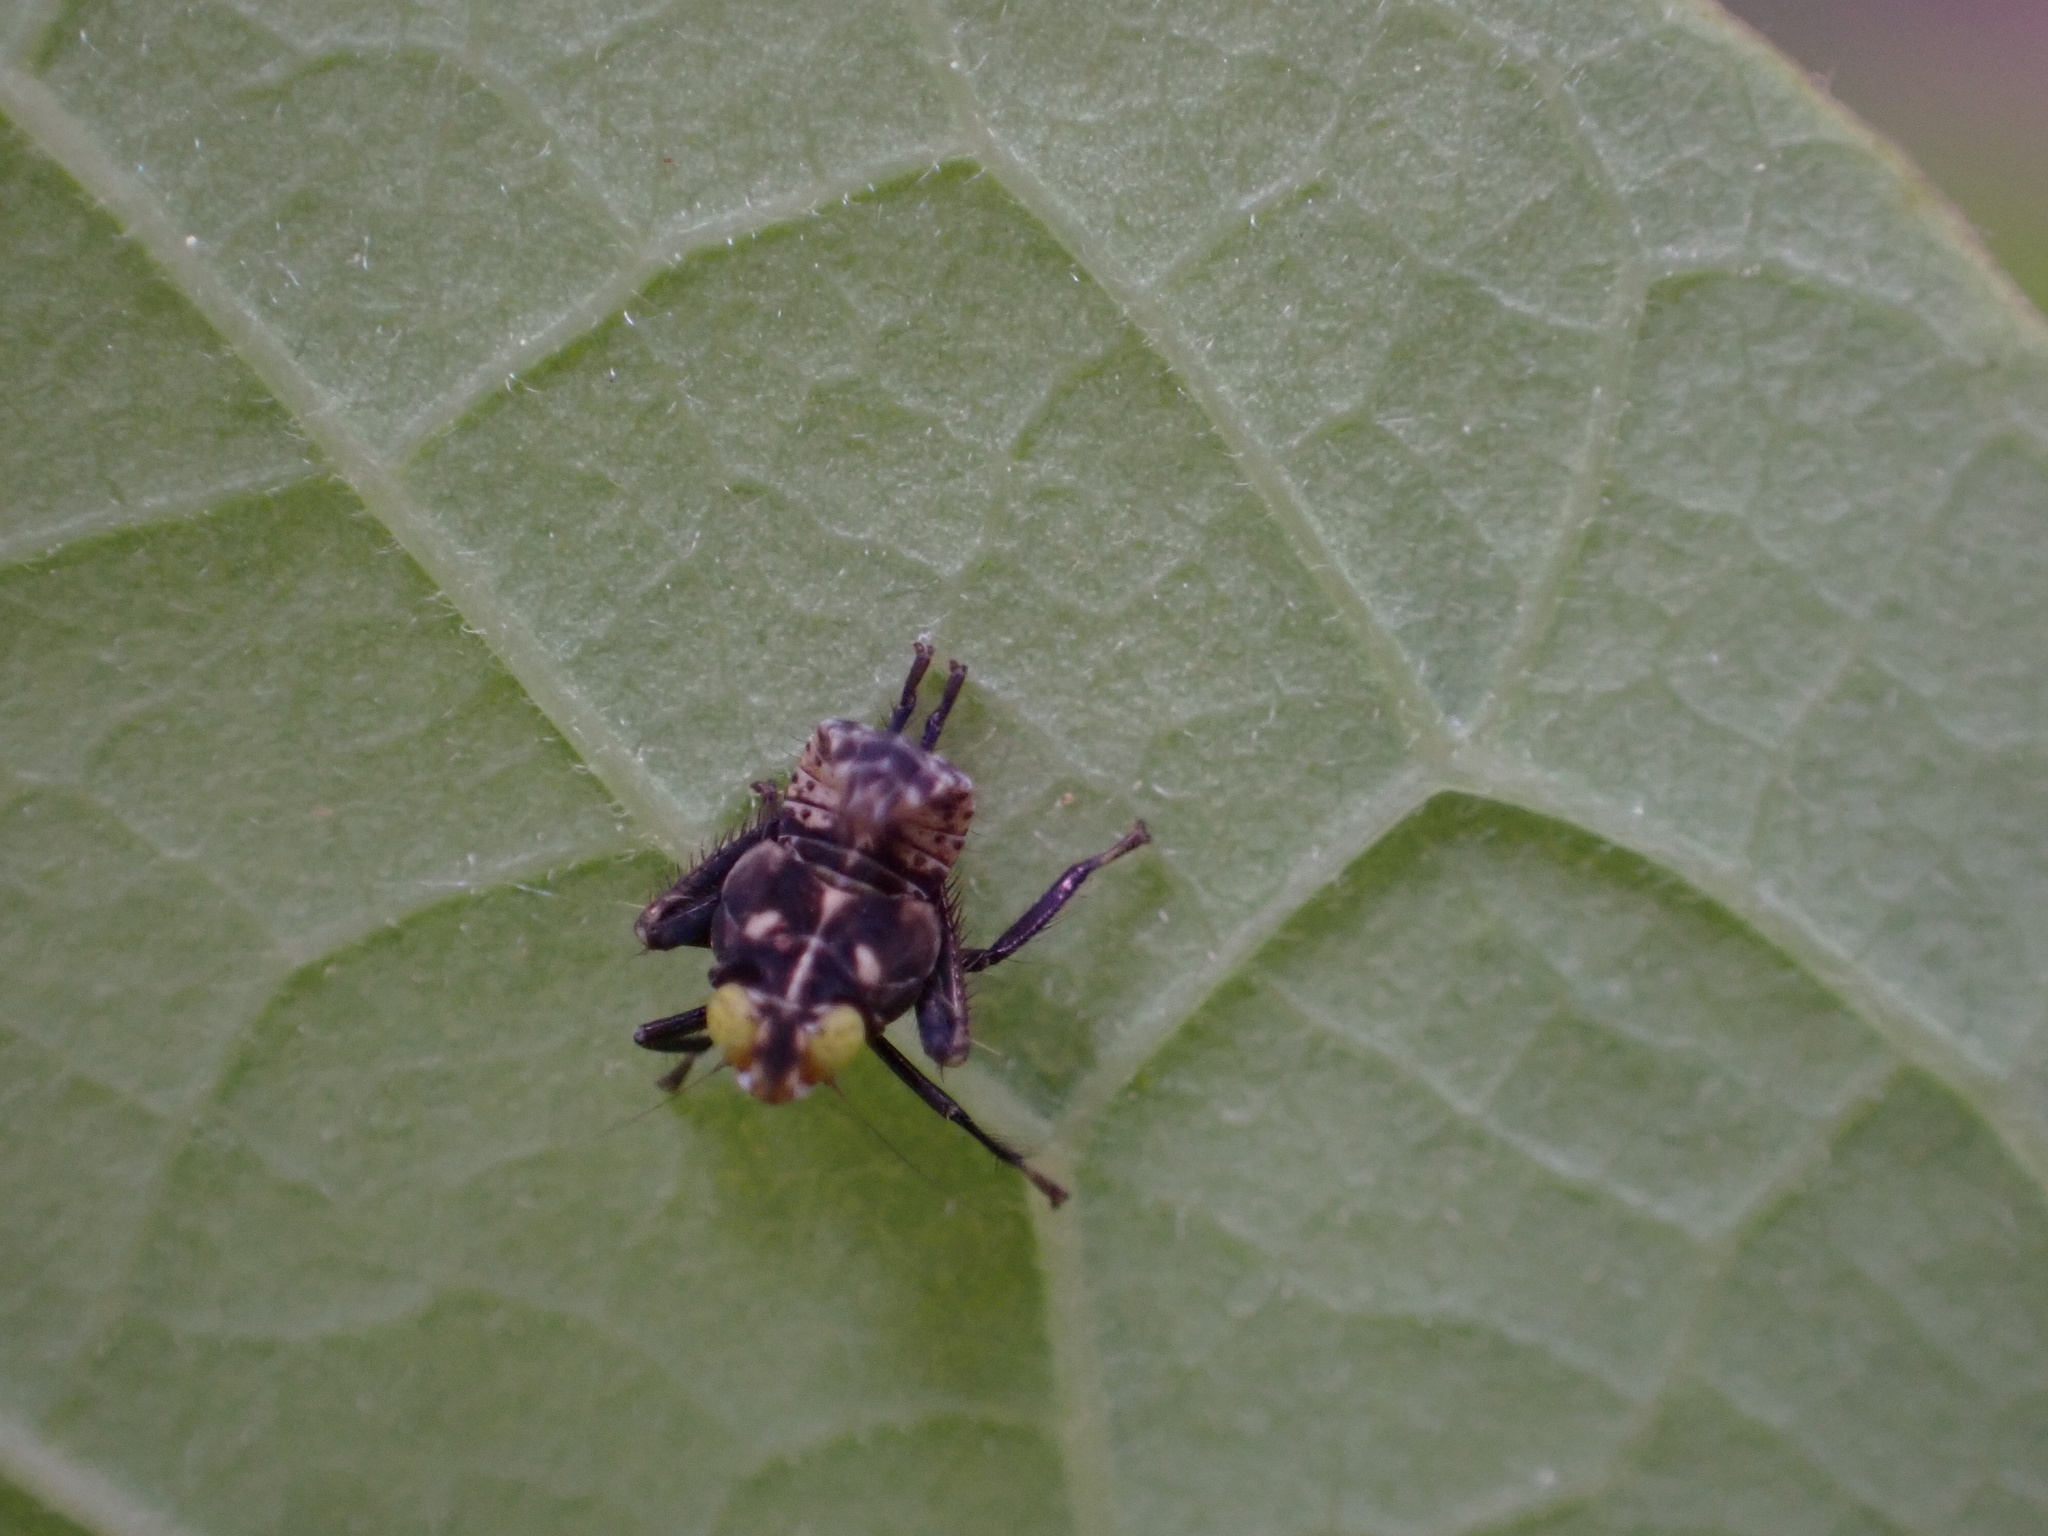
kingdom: Animalia
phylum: Arthropoda
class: Insecta
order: Hemiptera
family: Cicadellidae
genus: Jikradia
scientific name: Jikradia olitoria
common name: Coppery leafhopper
